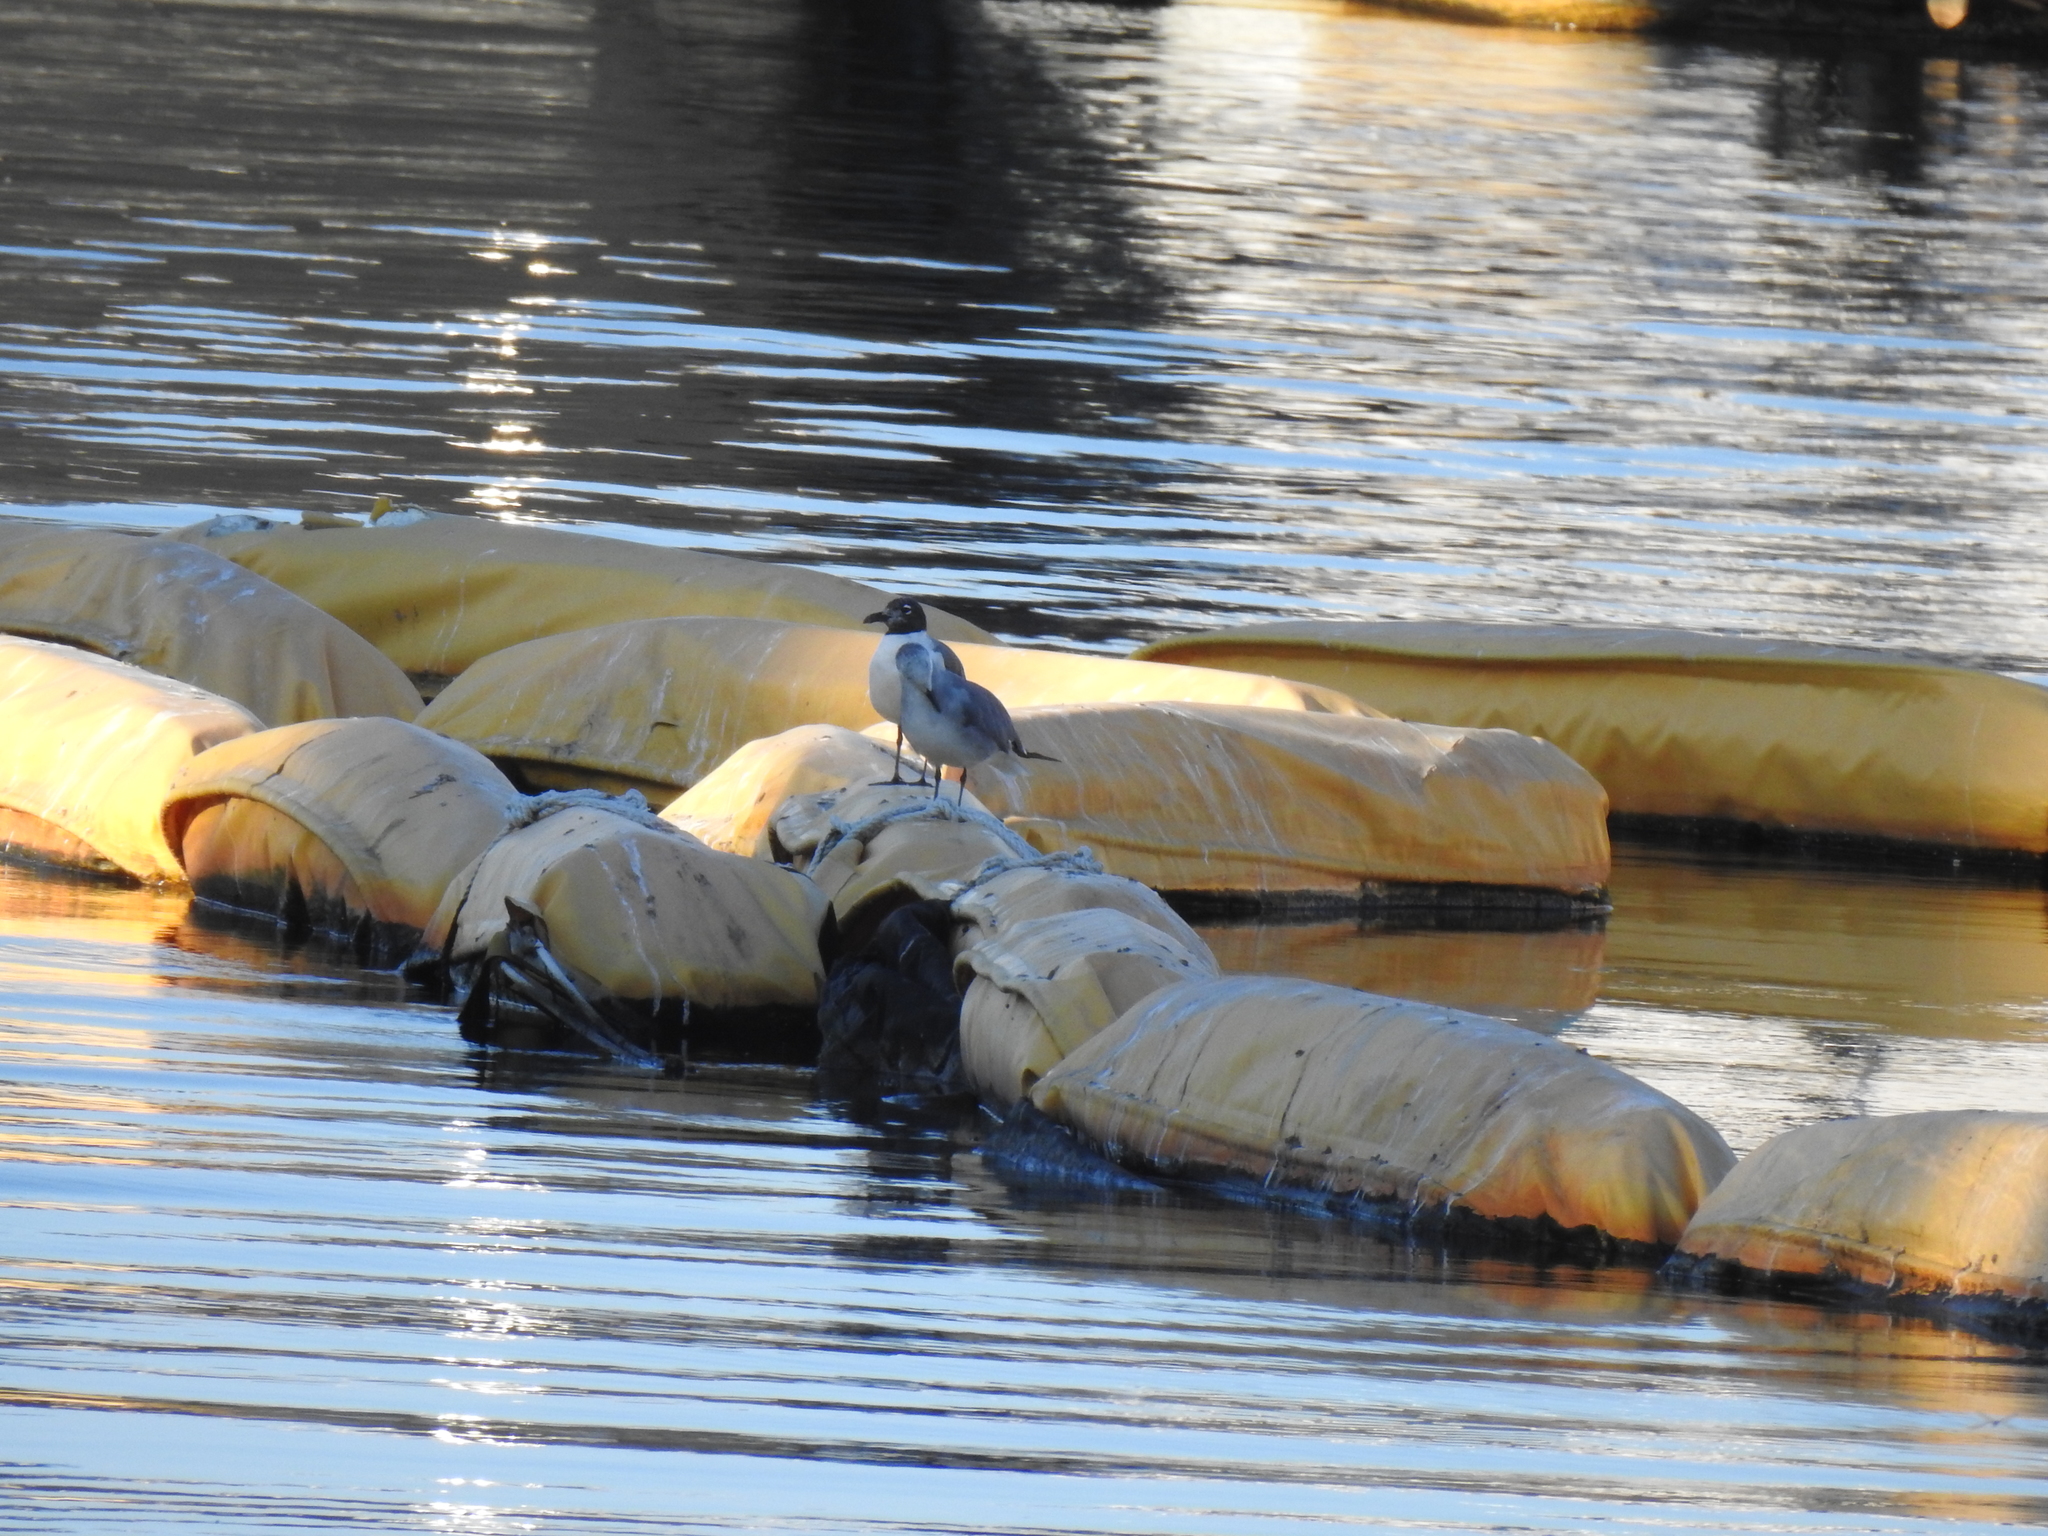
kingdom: Animalia
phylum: Chordata
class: Aves
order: Charadriiformes
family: Laridae
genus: Leucophaeus
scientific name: Leucophaeus atricilla
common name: Laughing gull
